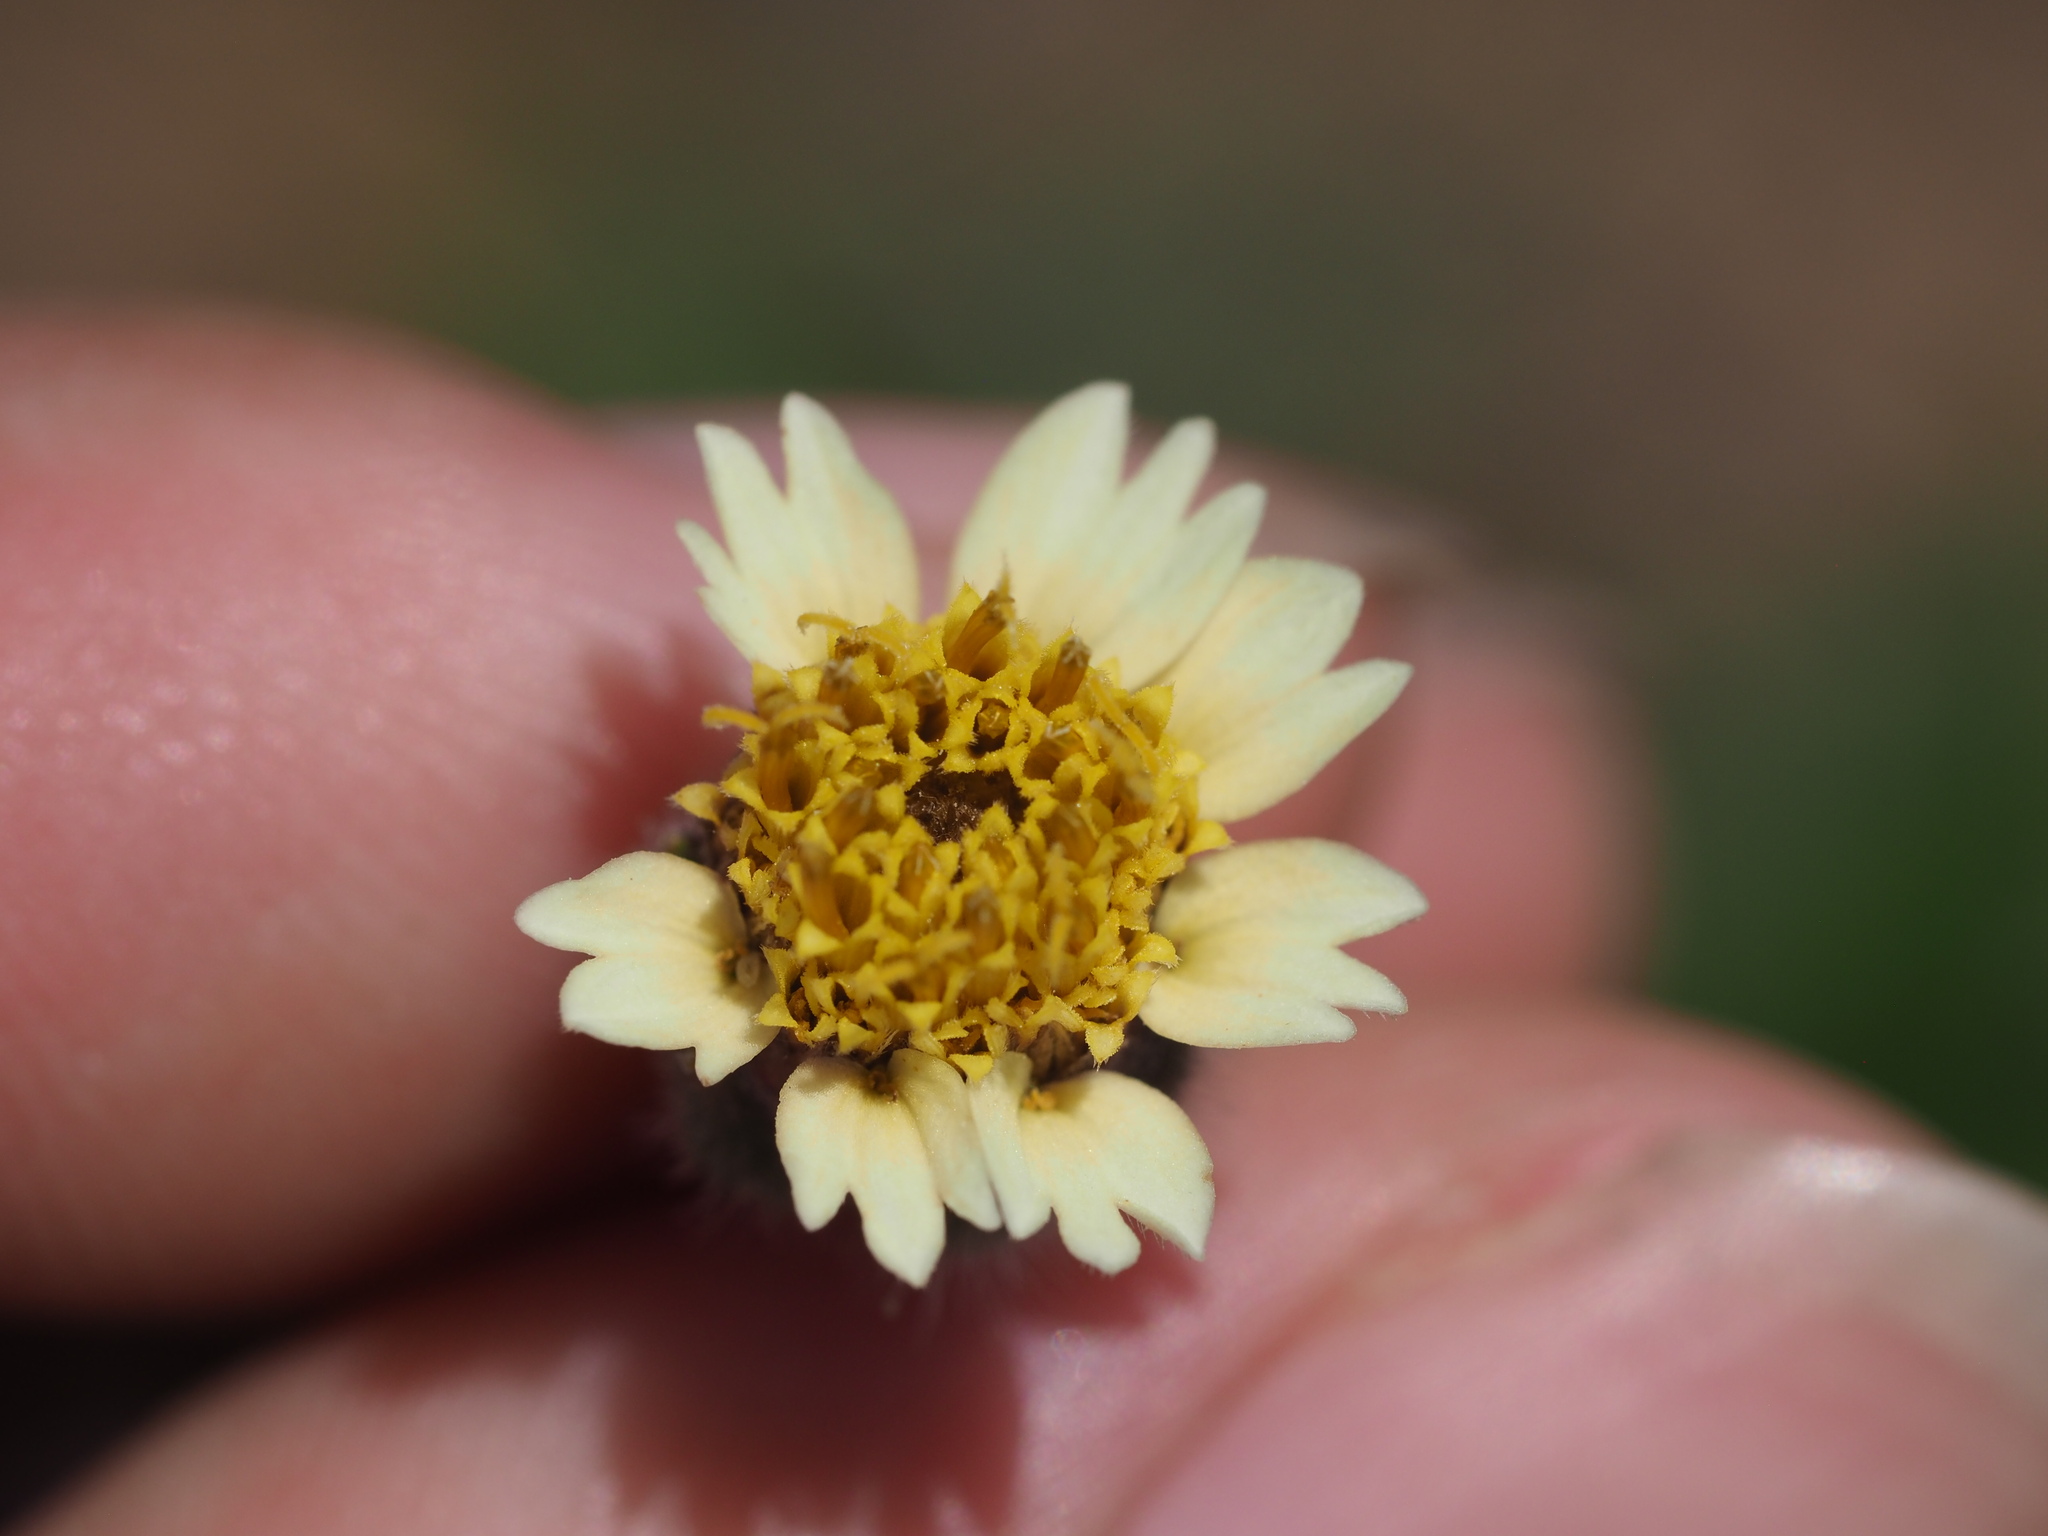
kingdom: Plantae
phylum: Tracheophyta
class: Magnoliopsida
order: Asterales
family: Asteraceae
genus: Tridax
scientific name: Tridax procumbens
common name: Coatbuttons
